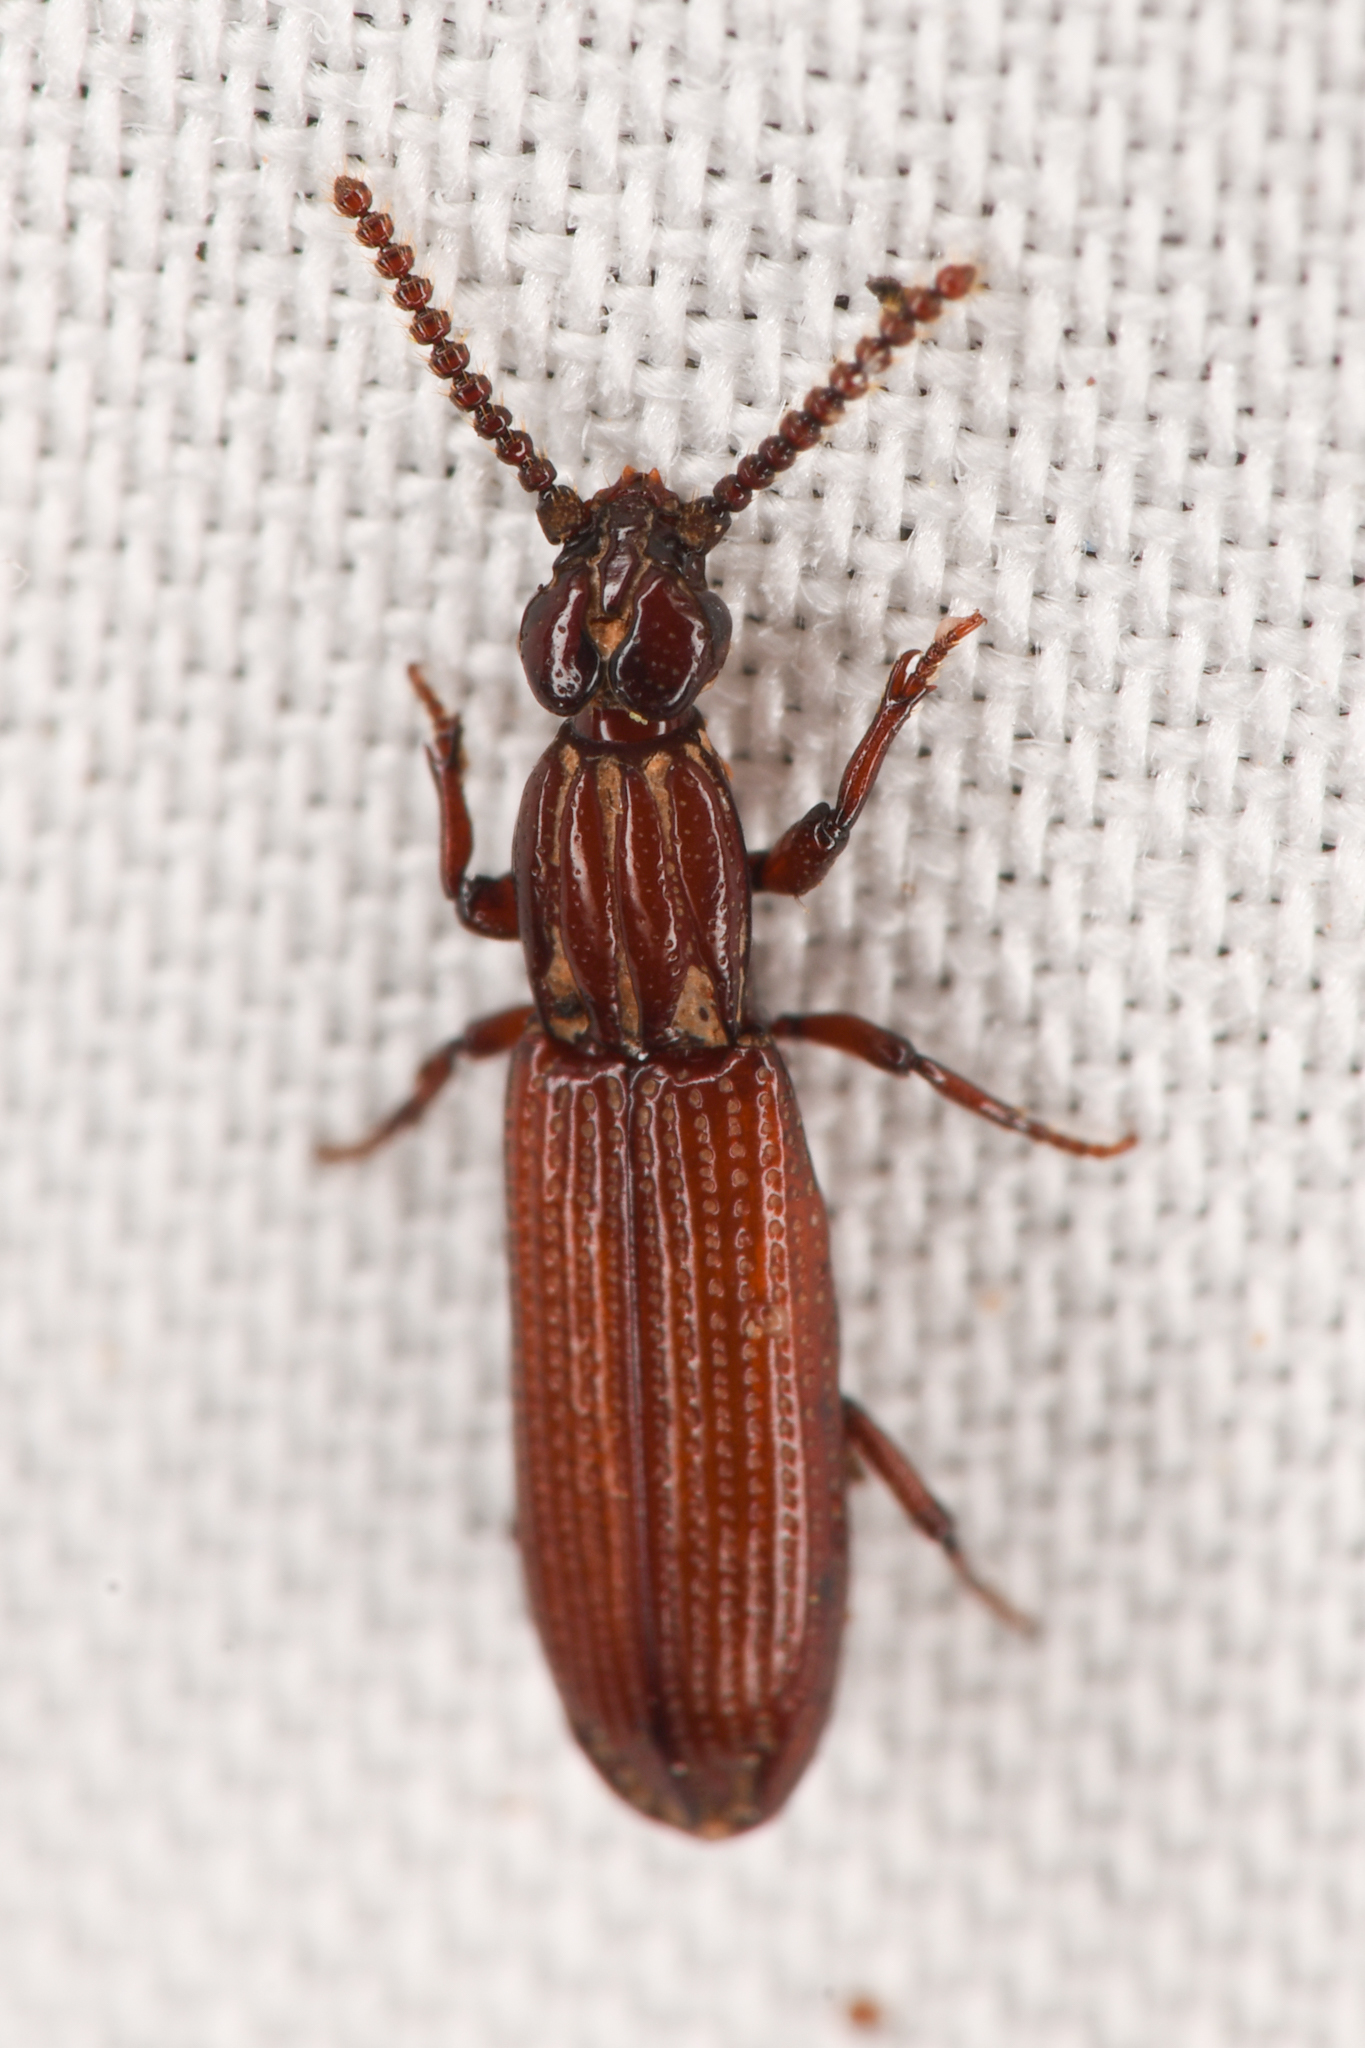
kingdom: Animalia
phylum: Arthropoda
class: Insecta
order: Coleoptera
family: Carabidae
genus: Omoglymmius
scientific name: Omoglymmius hamatus
